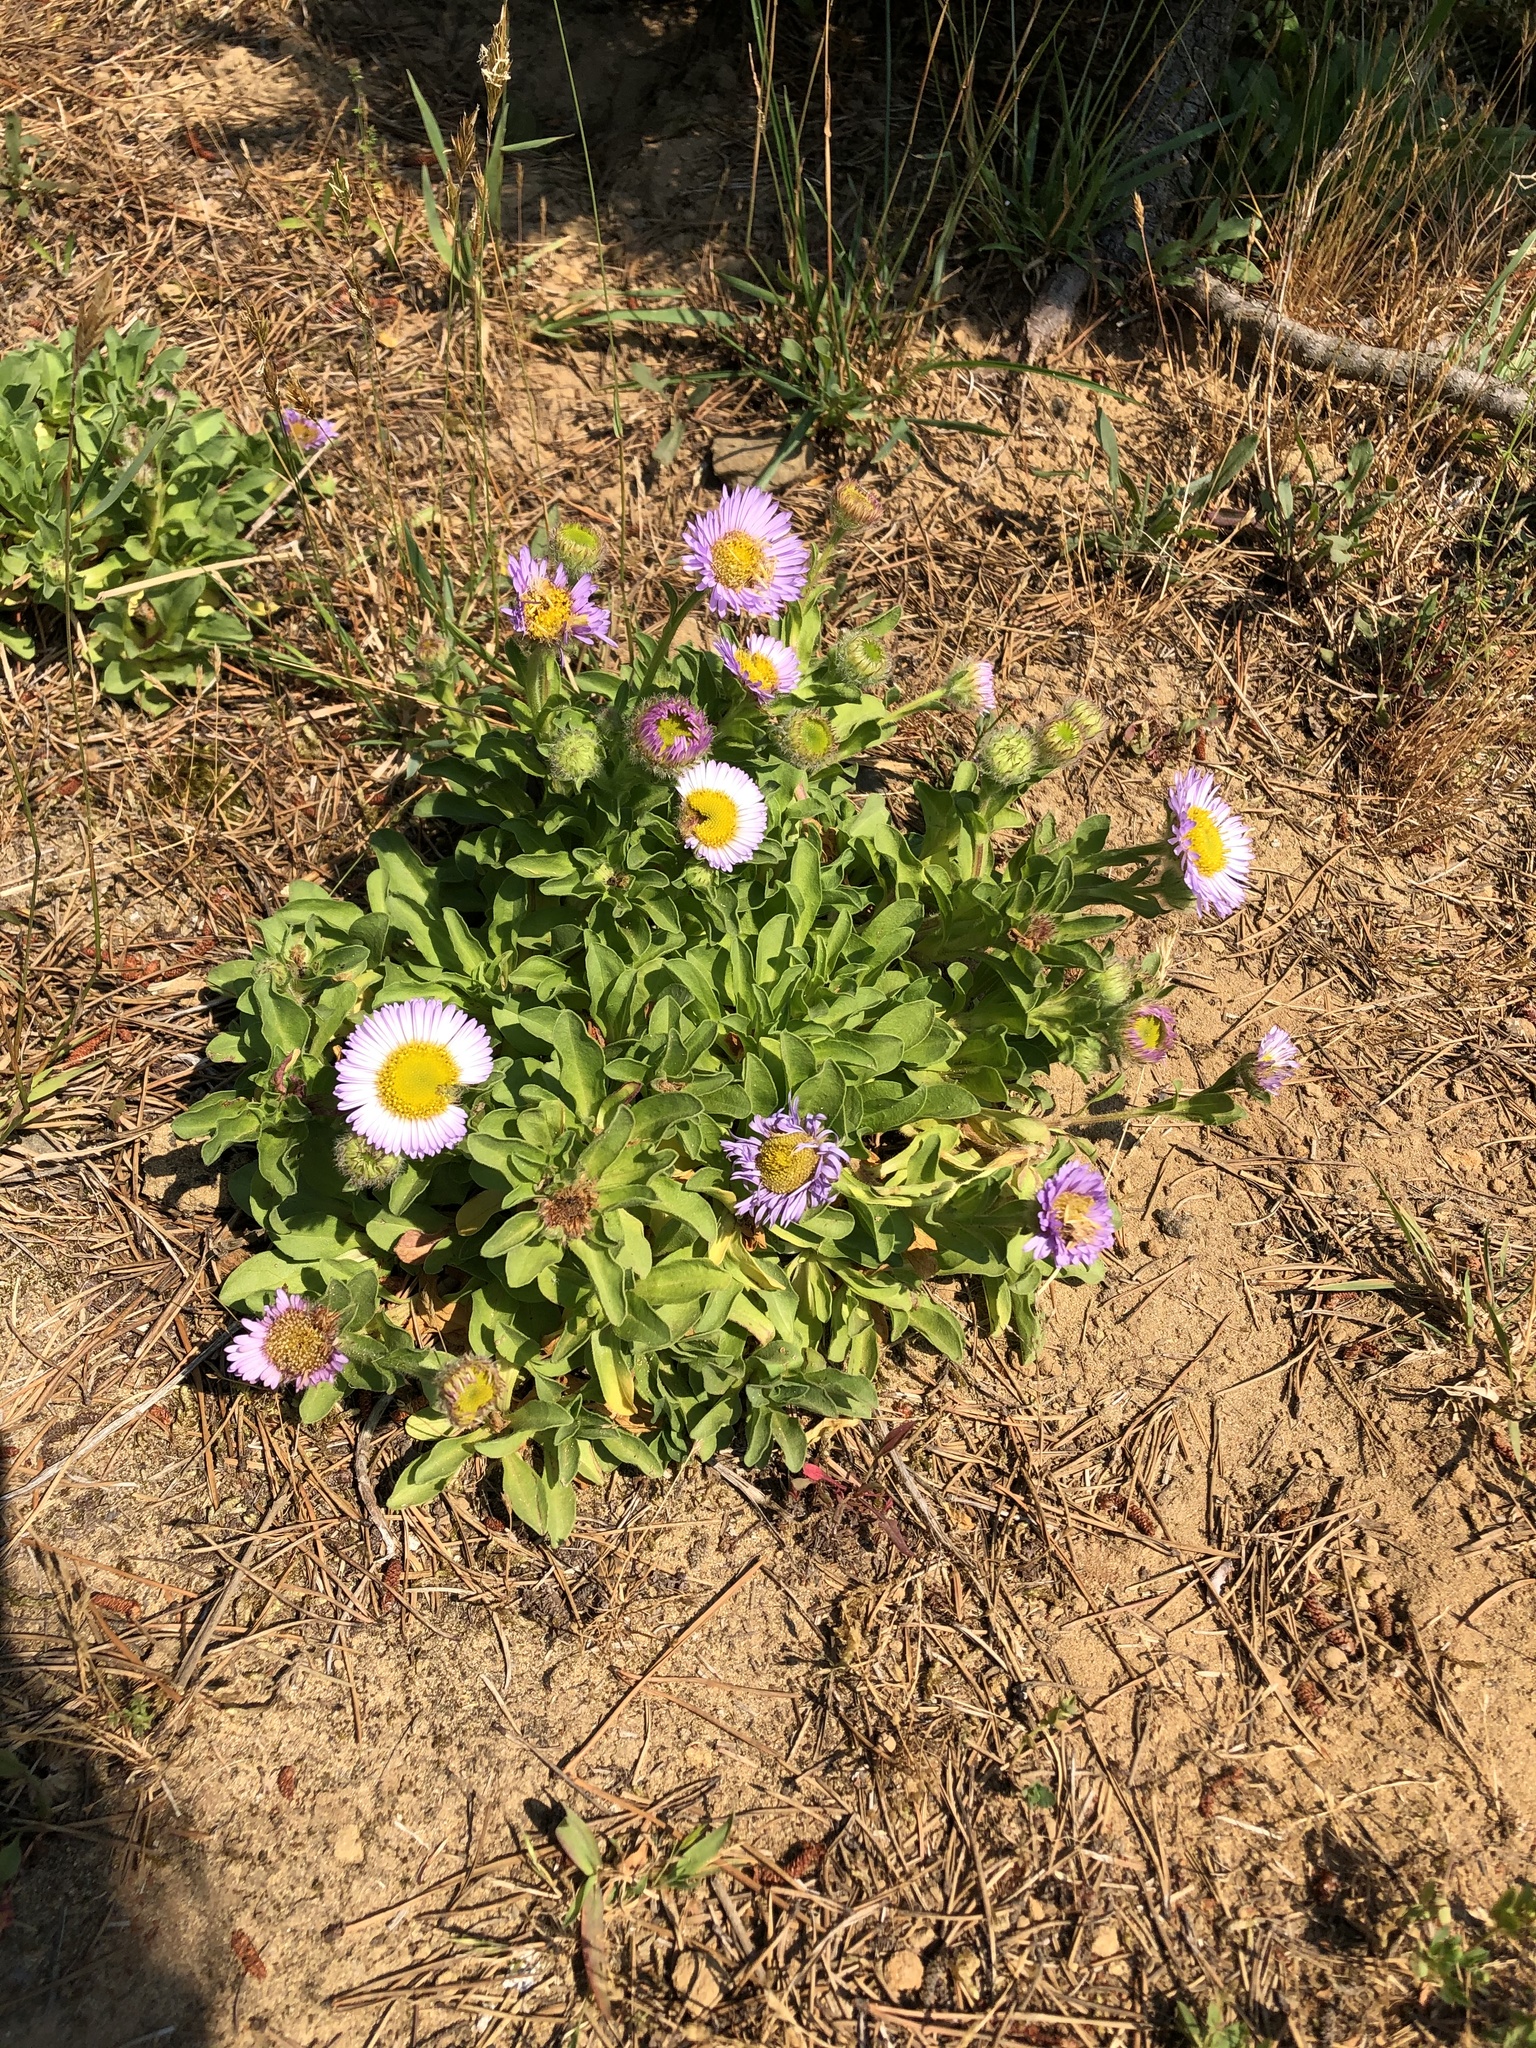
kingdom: Plantae
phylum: Tracheophyta
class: Magnoliopsida
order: Asterales
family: Asteraceae
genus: Erigeron
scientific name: Erigeron glaucus
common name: Seaside daisy
